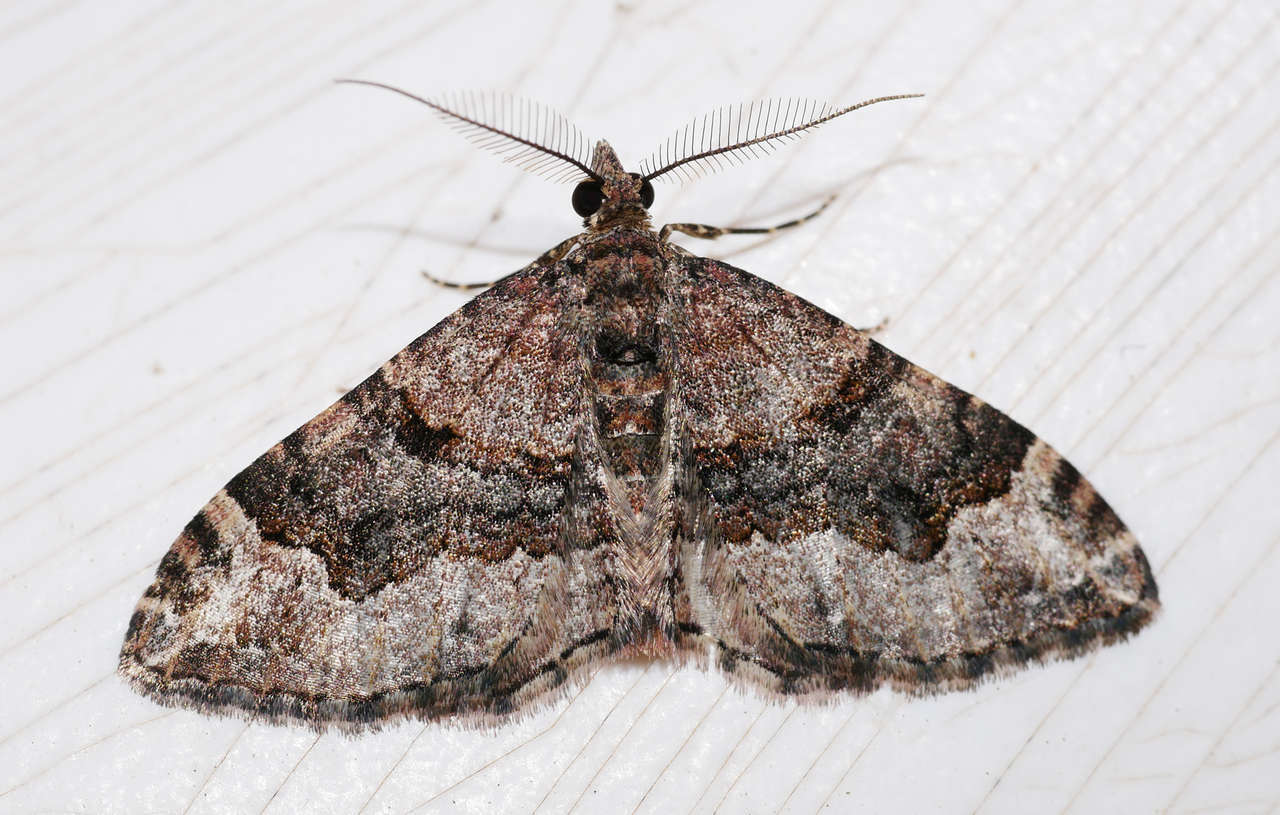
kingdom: Animalia
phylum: Arthropoda
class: Insecta
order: Lepidoptera
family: Geometridae
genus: Epyaxa
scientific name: Epyaxa sodaliata
